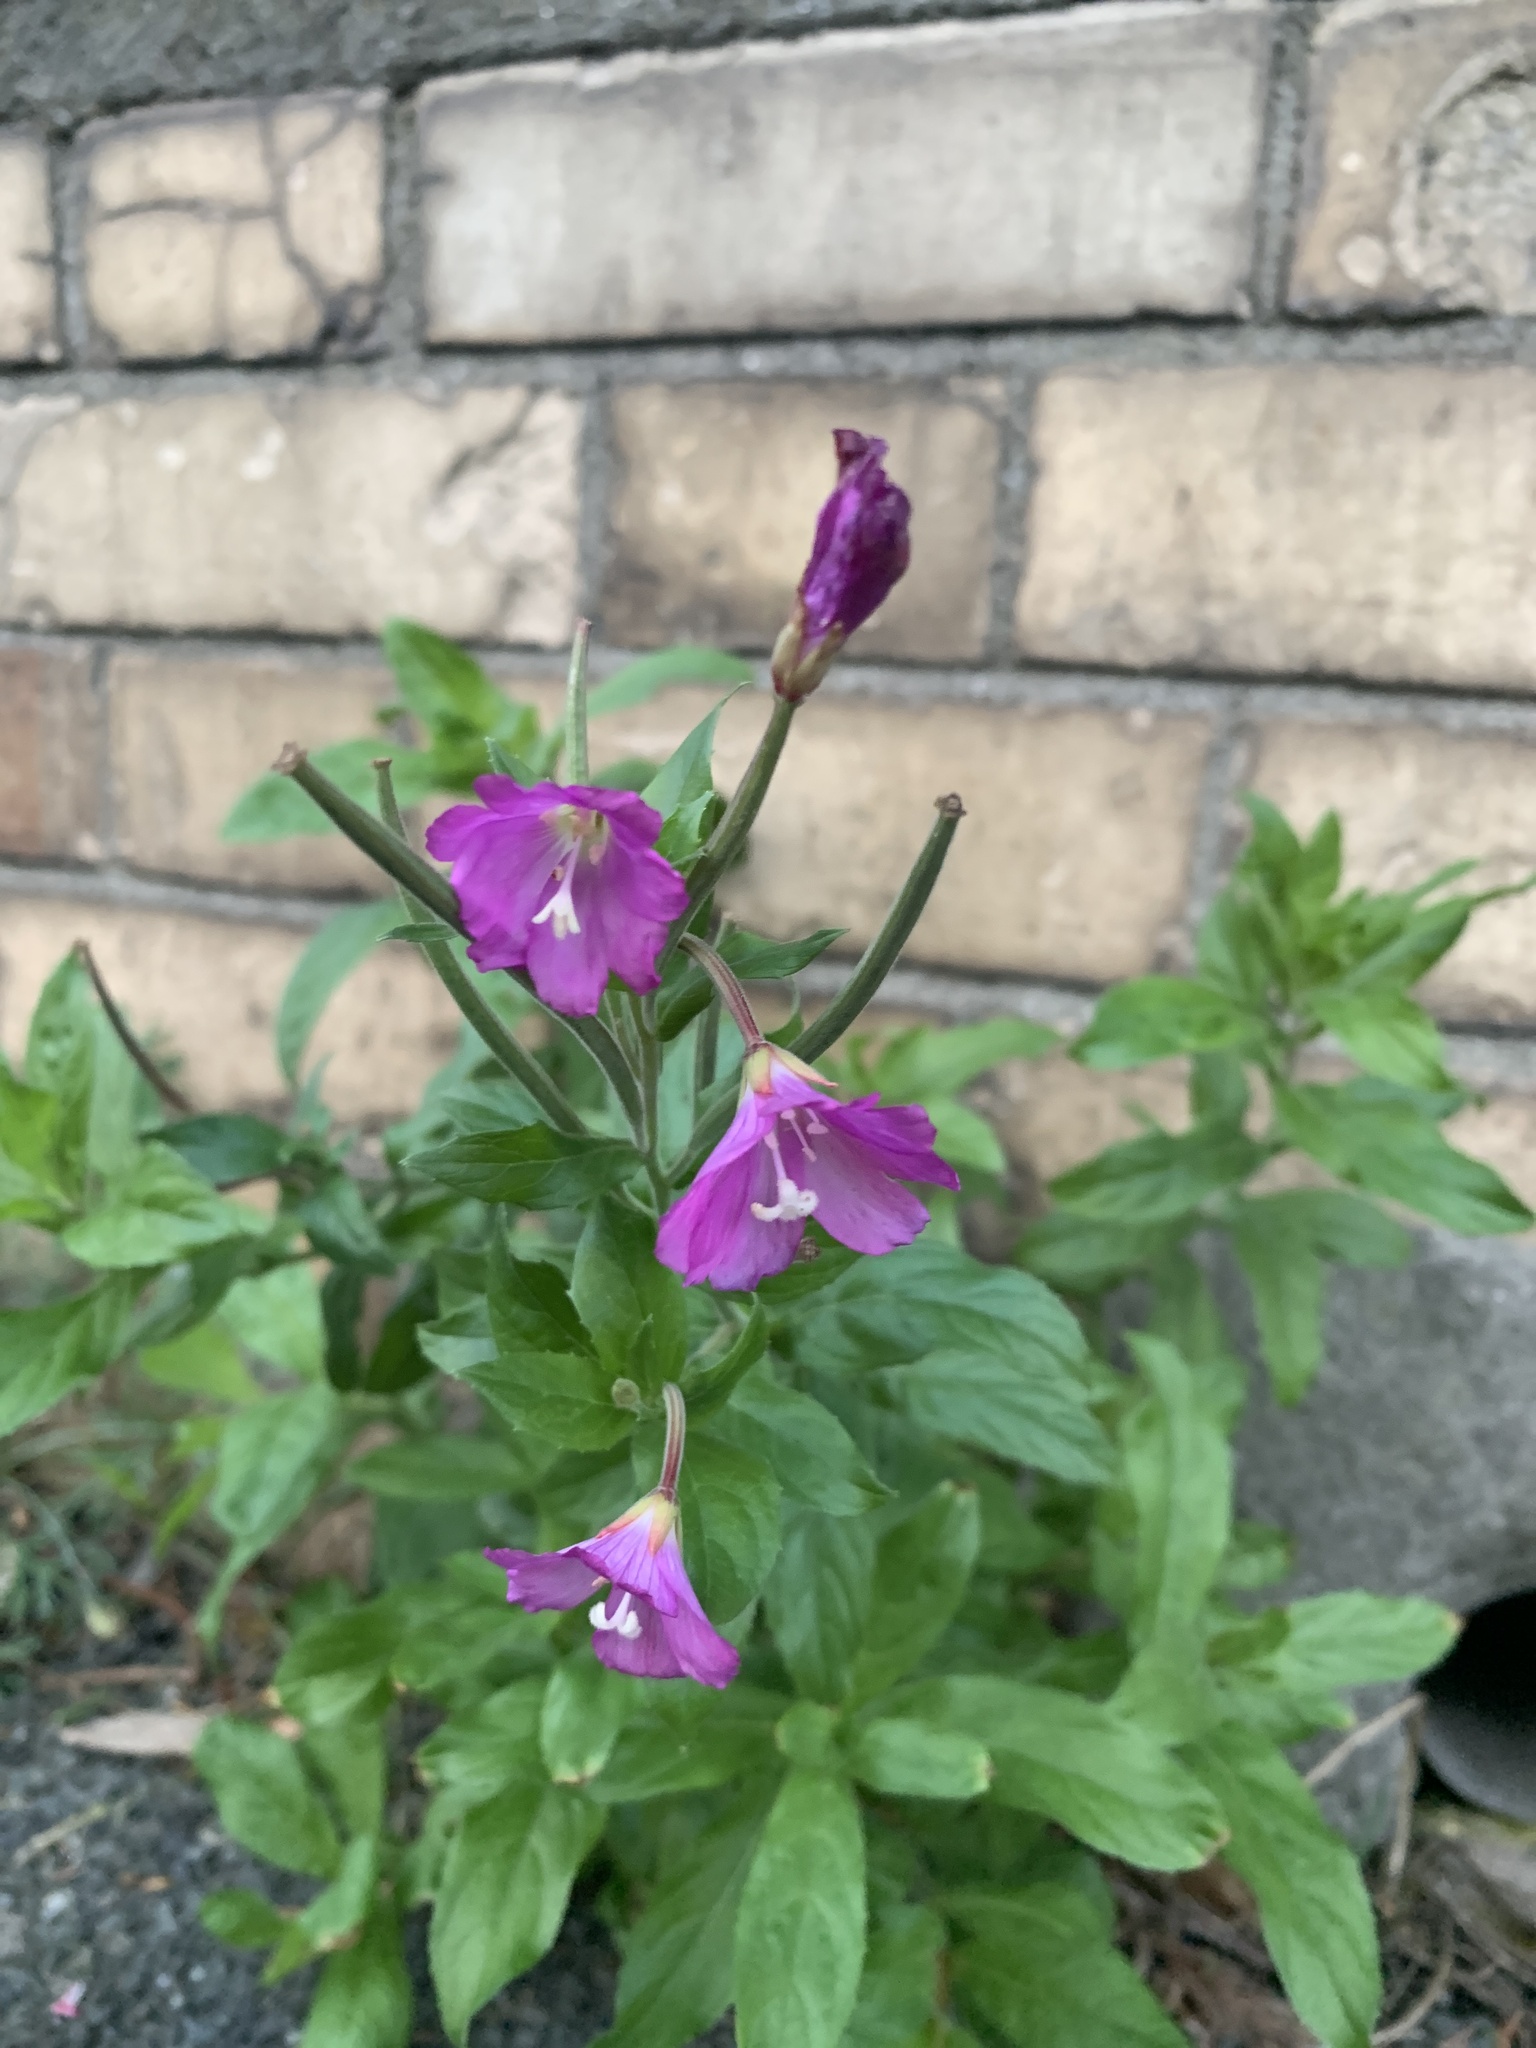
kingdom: Plantae
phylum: Tracheophyta
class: Magnoliopsida
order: Myrtales
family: Onagraceae
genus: Epilobium
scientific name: Epilobium hirsutum
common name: Great willowherb
